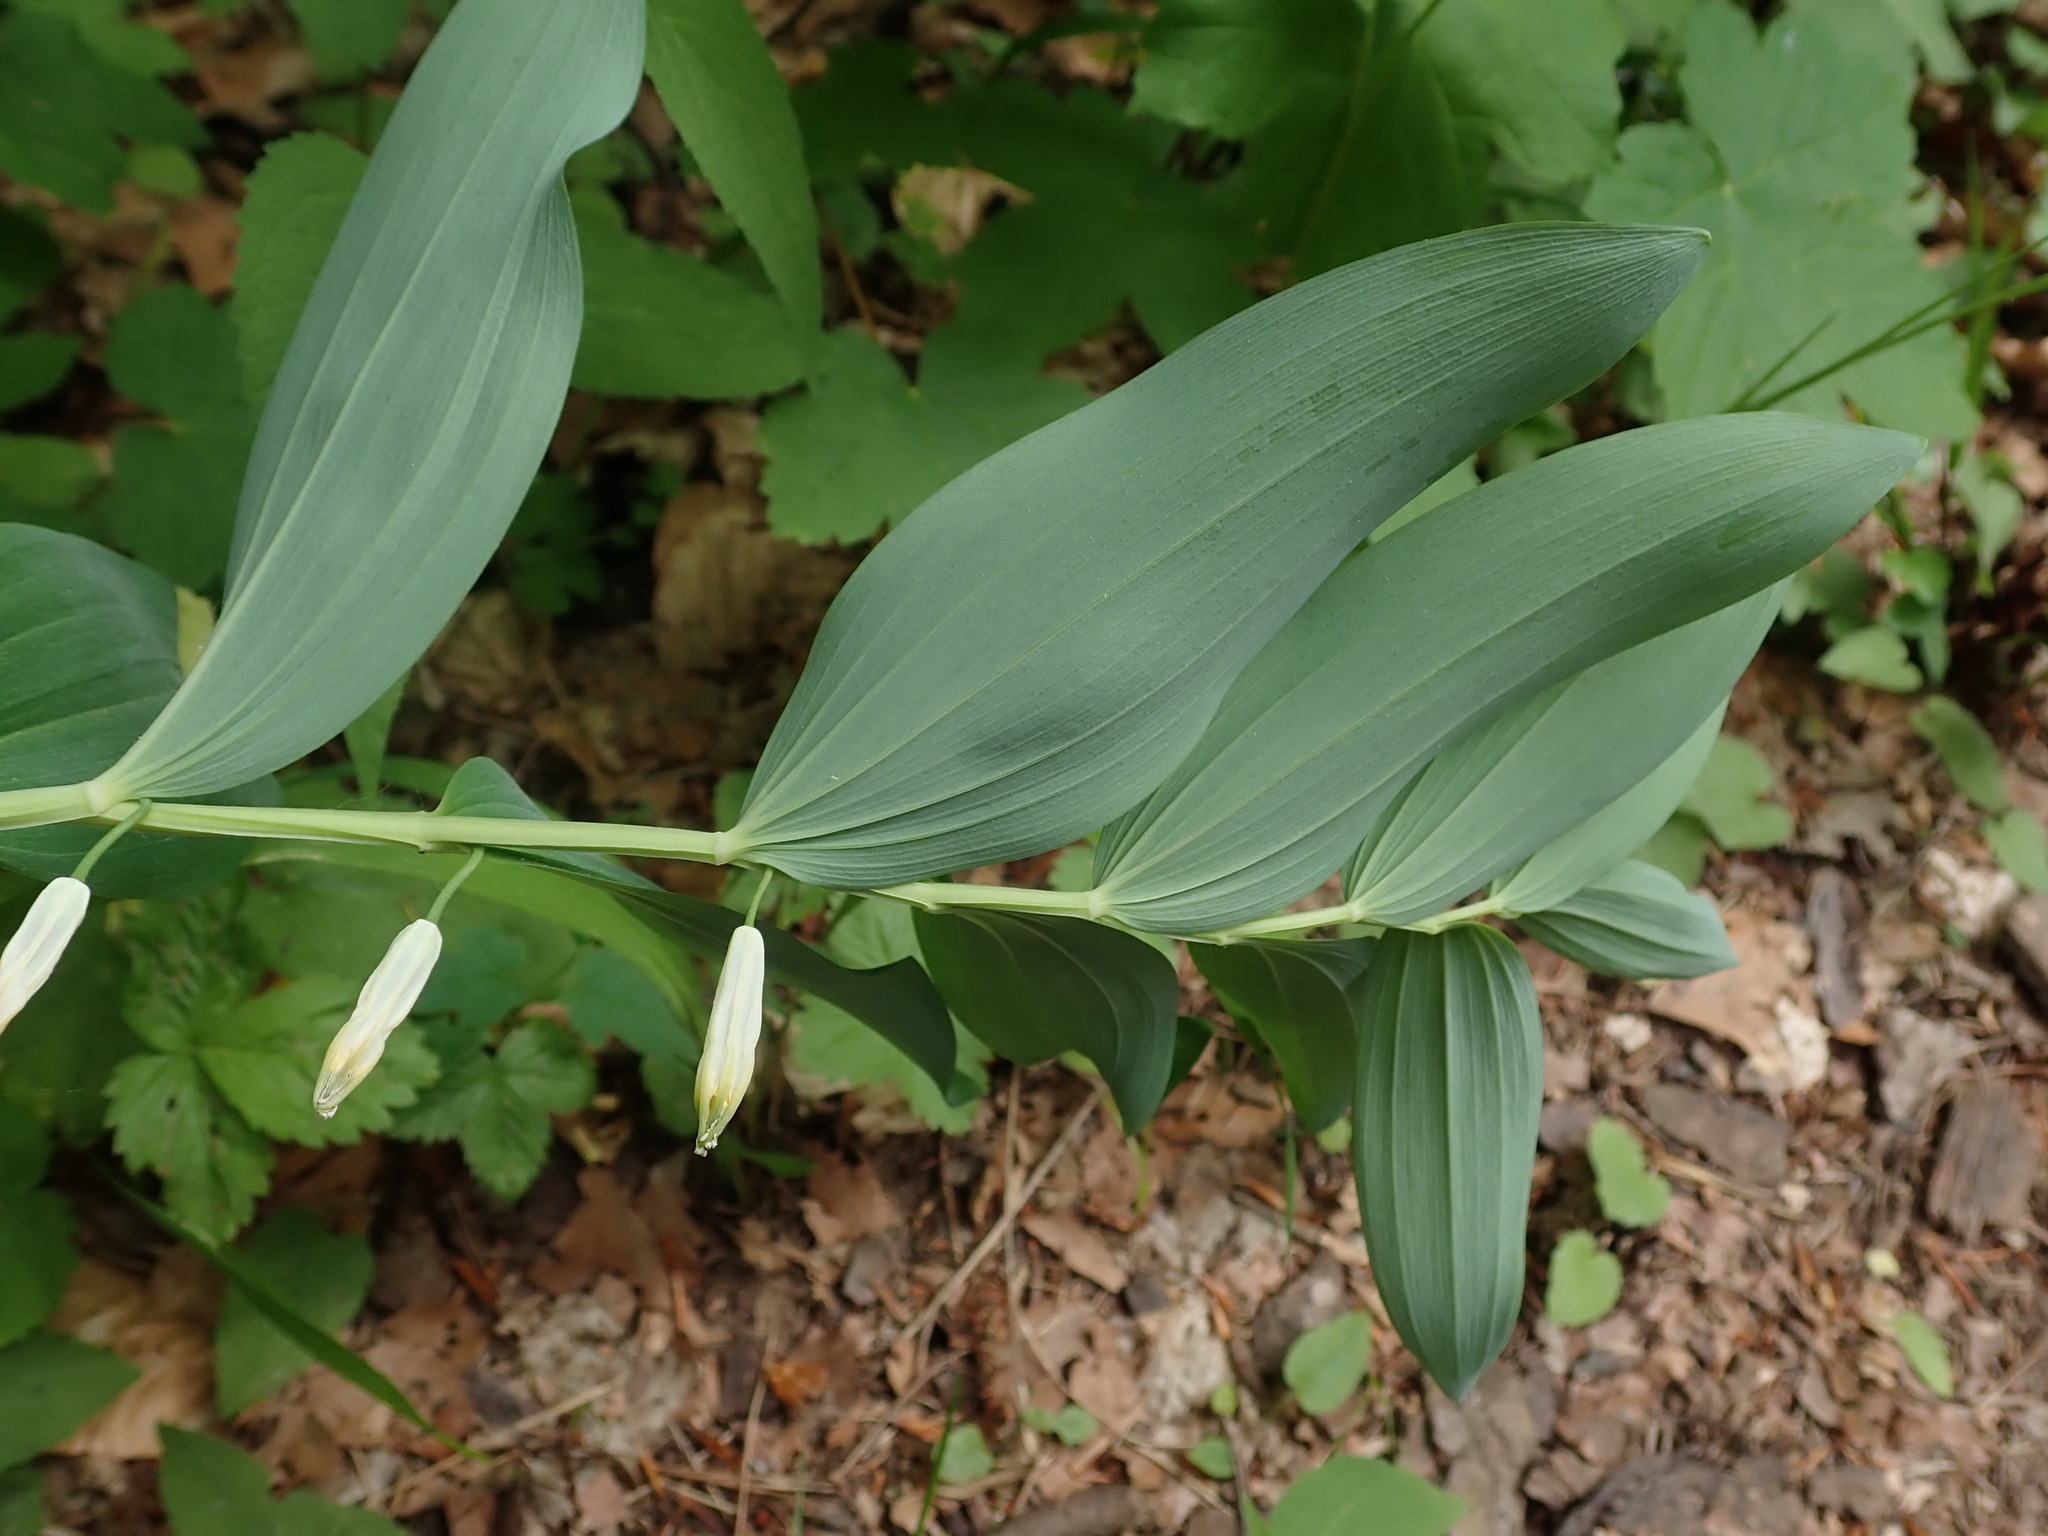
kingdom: Plantae
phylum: Tracheophyta
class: Liliopsida
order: Asparagales
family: Asparagaceae
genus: Polygonatum
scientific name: Polygonatum odoratum
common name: Angular solomon's-seal
